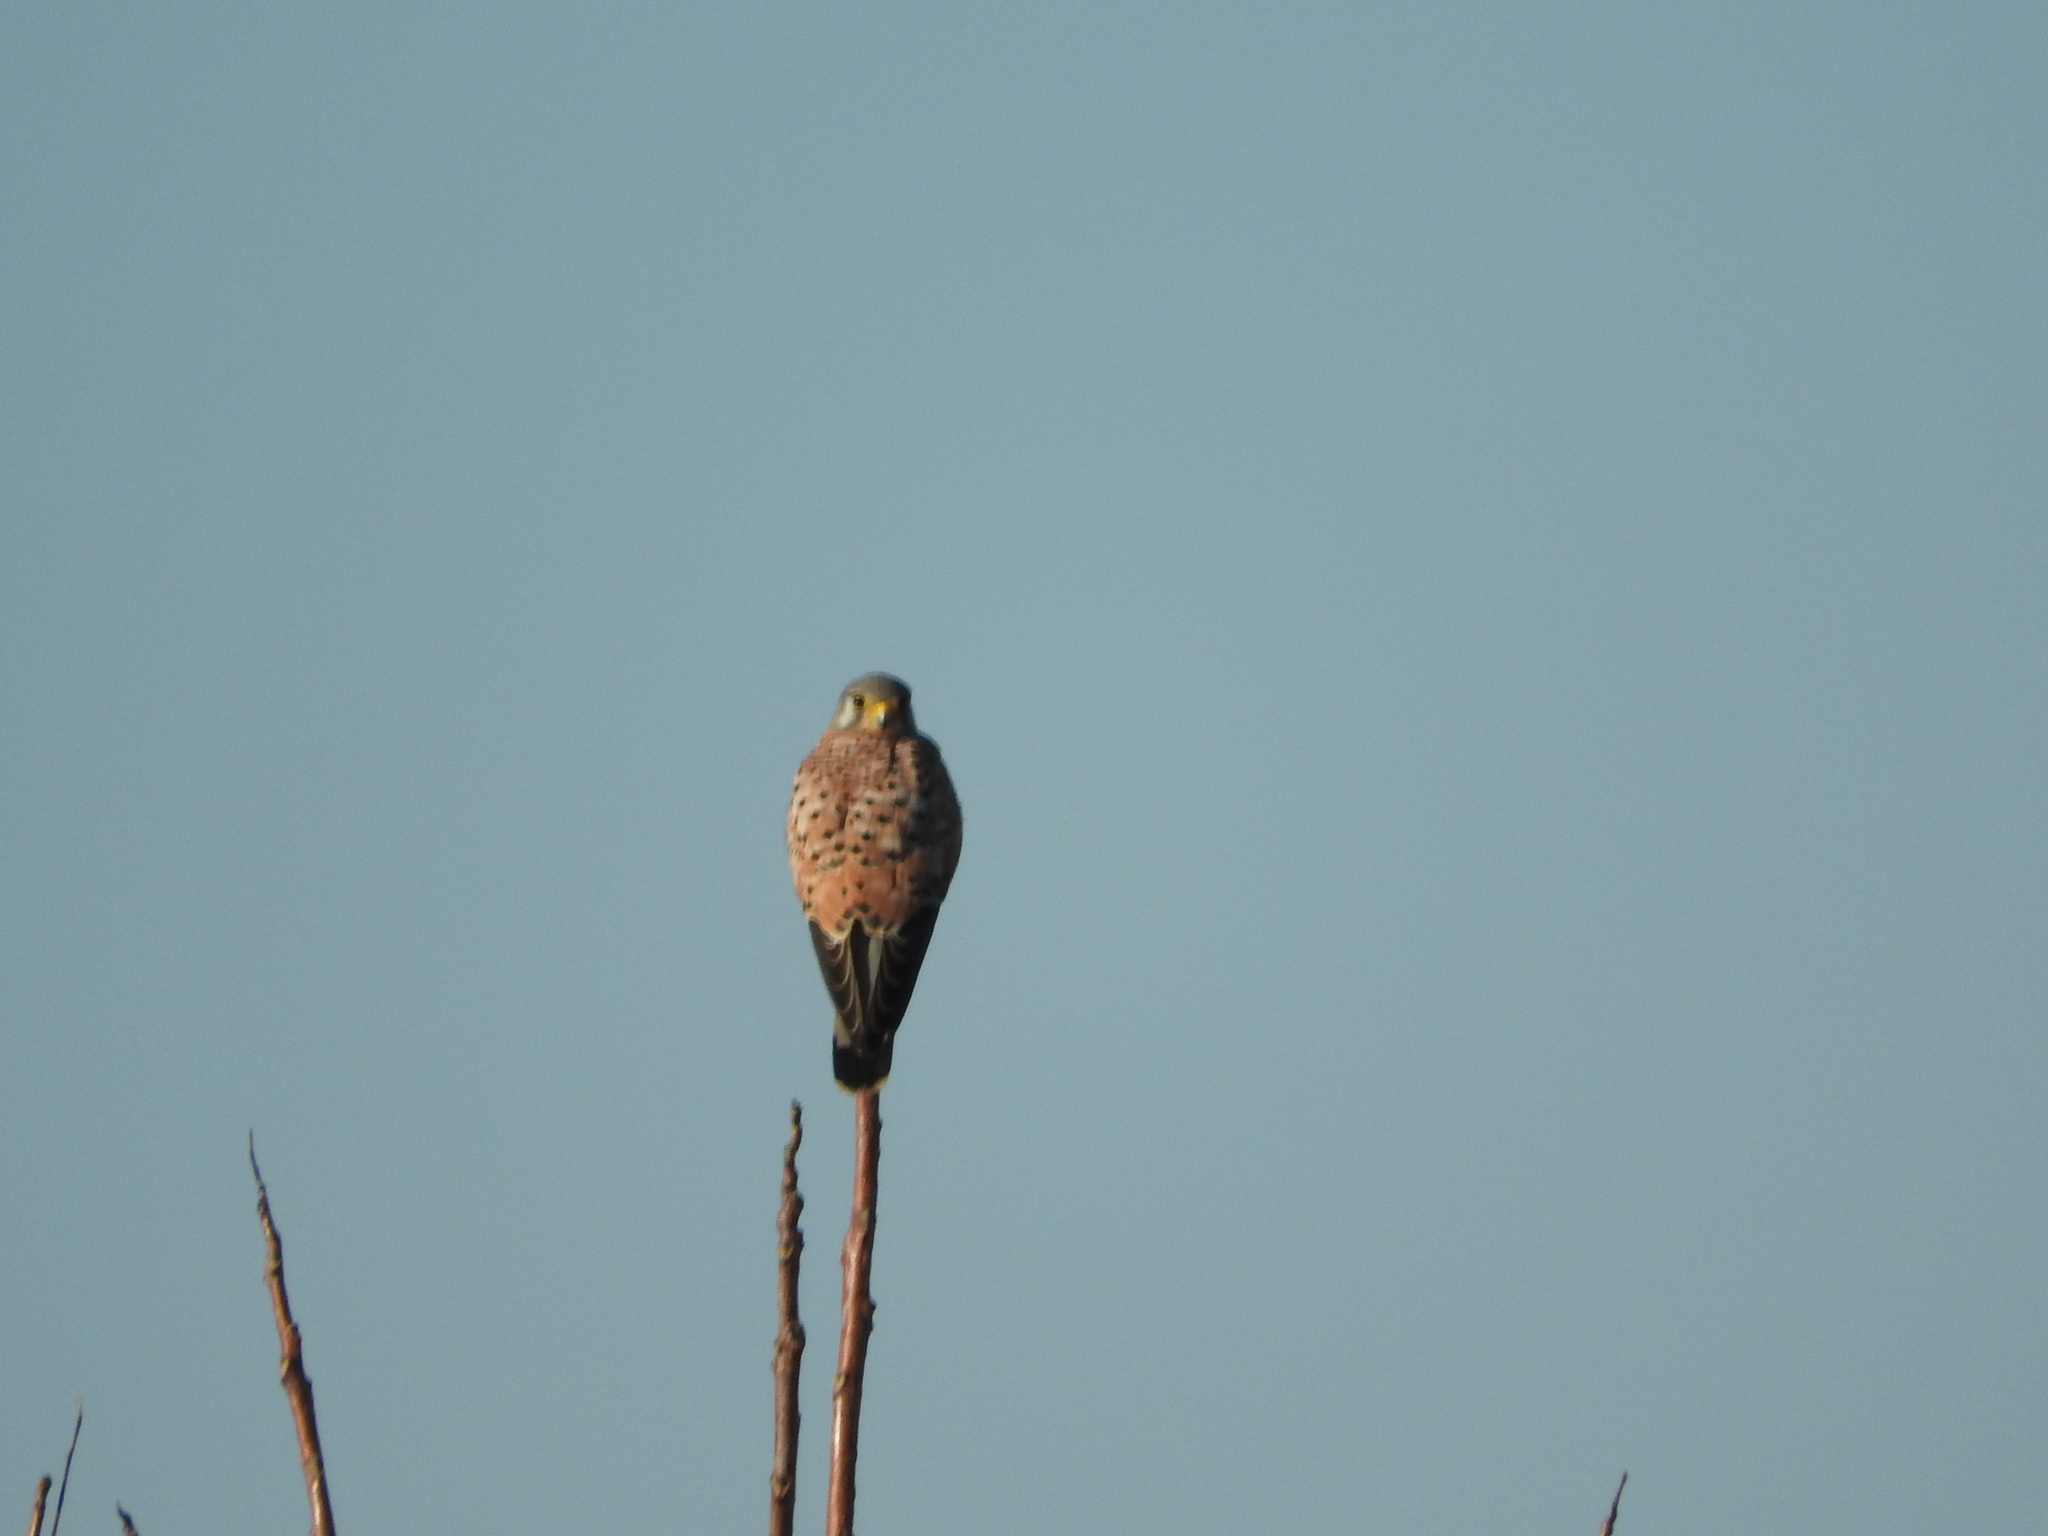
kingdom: Animalia
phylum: Chordata
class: Aves
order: Falconiformes
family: Falconidae
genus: Falco
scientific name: Falco tinnunculus
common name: Common kestrel
